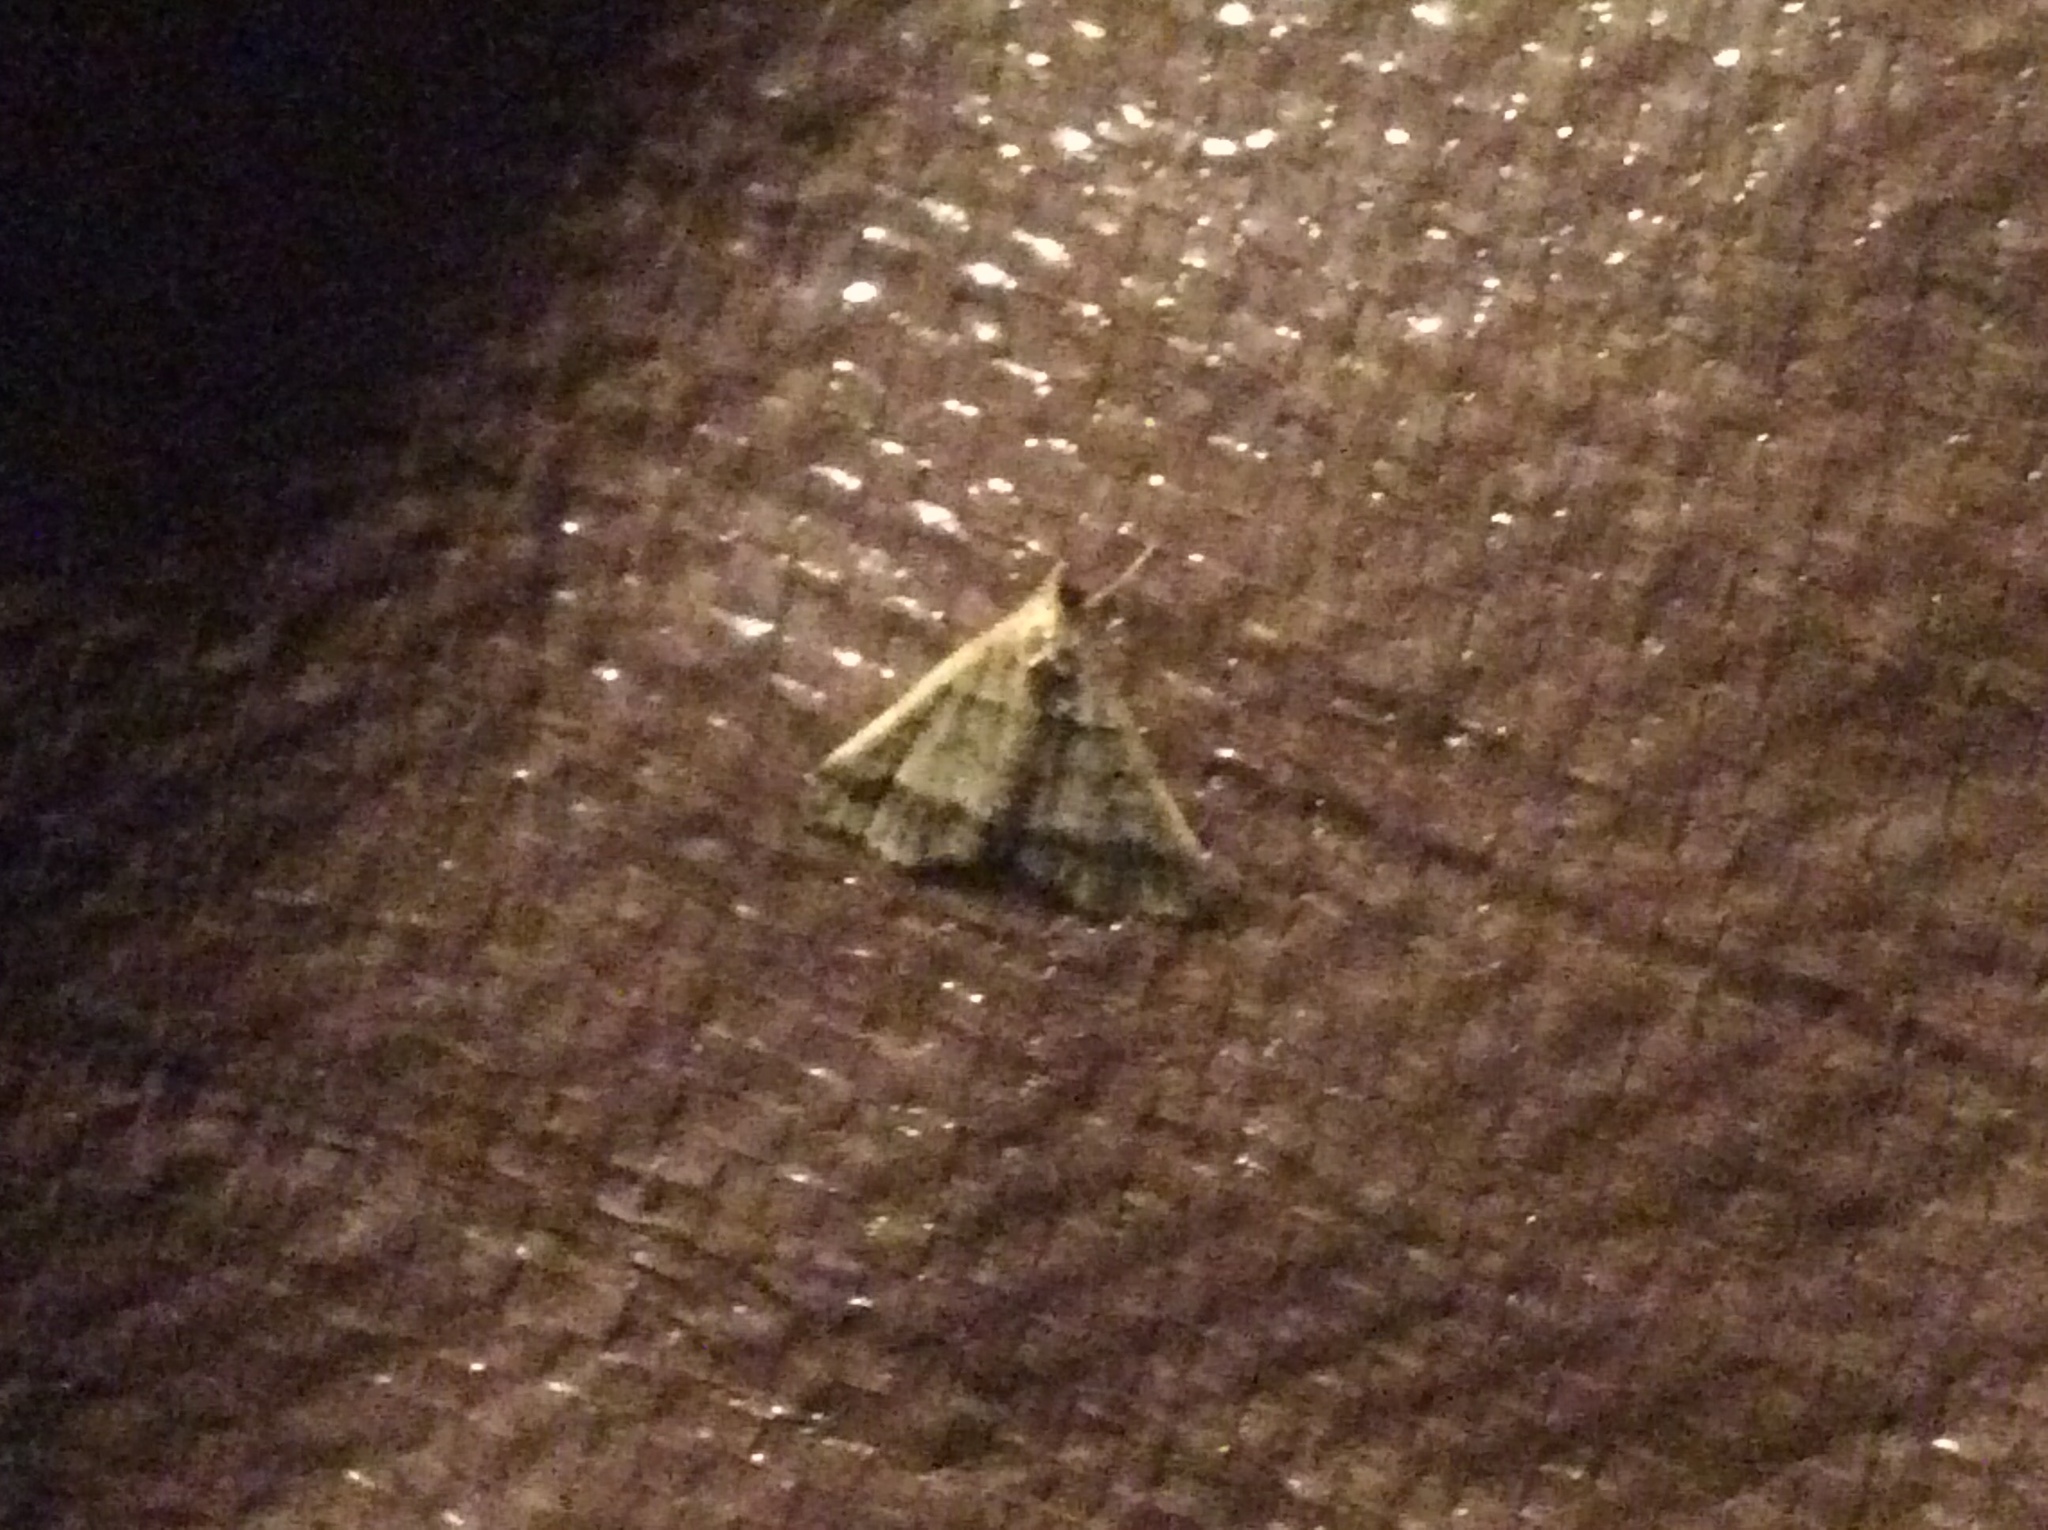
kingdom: Animalia
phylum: Arthropoda
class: Insecta
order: Lepidoptera
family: Erebidae
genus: Phaeolita
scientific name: Phaeolita pyramusalis
